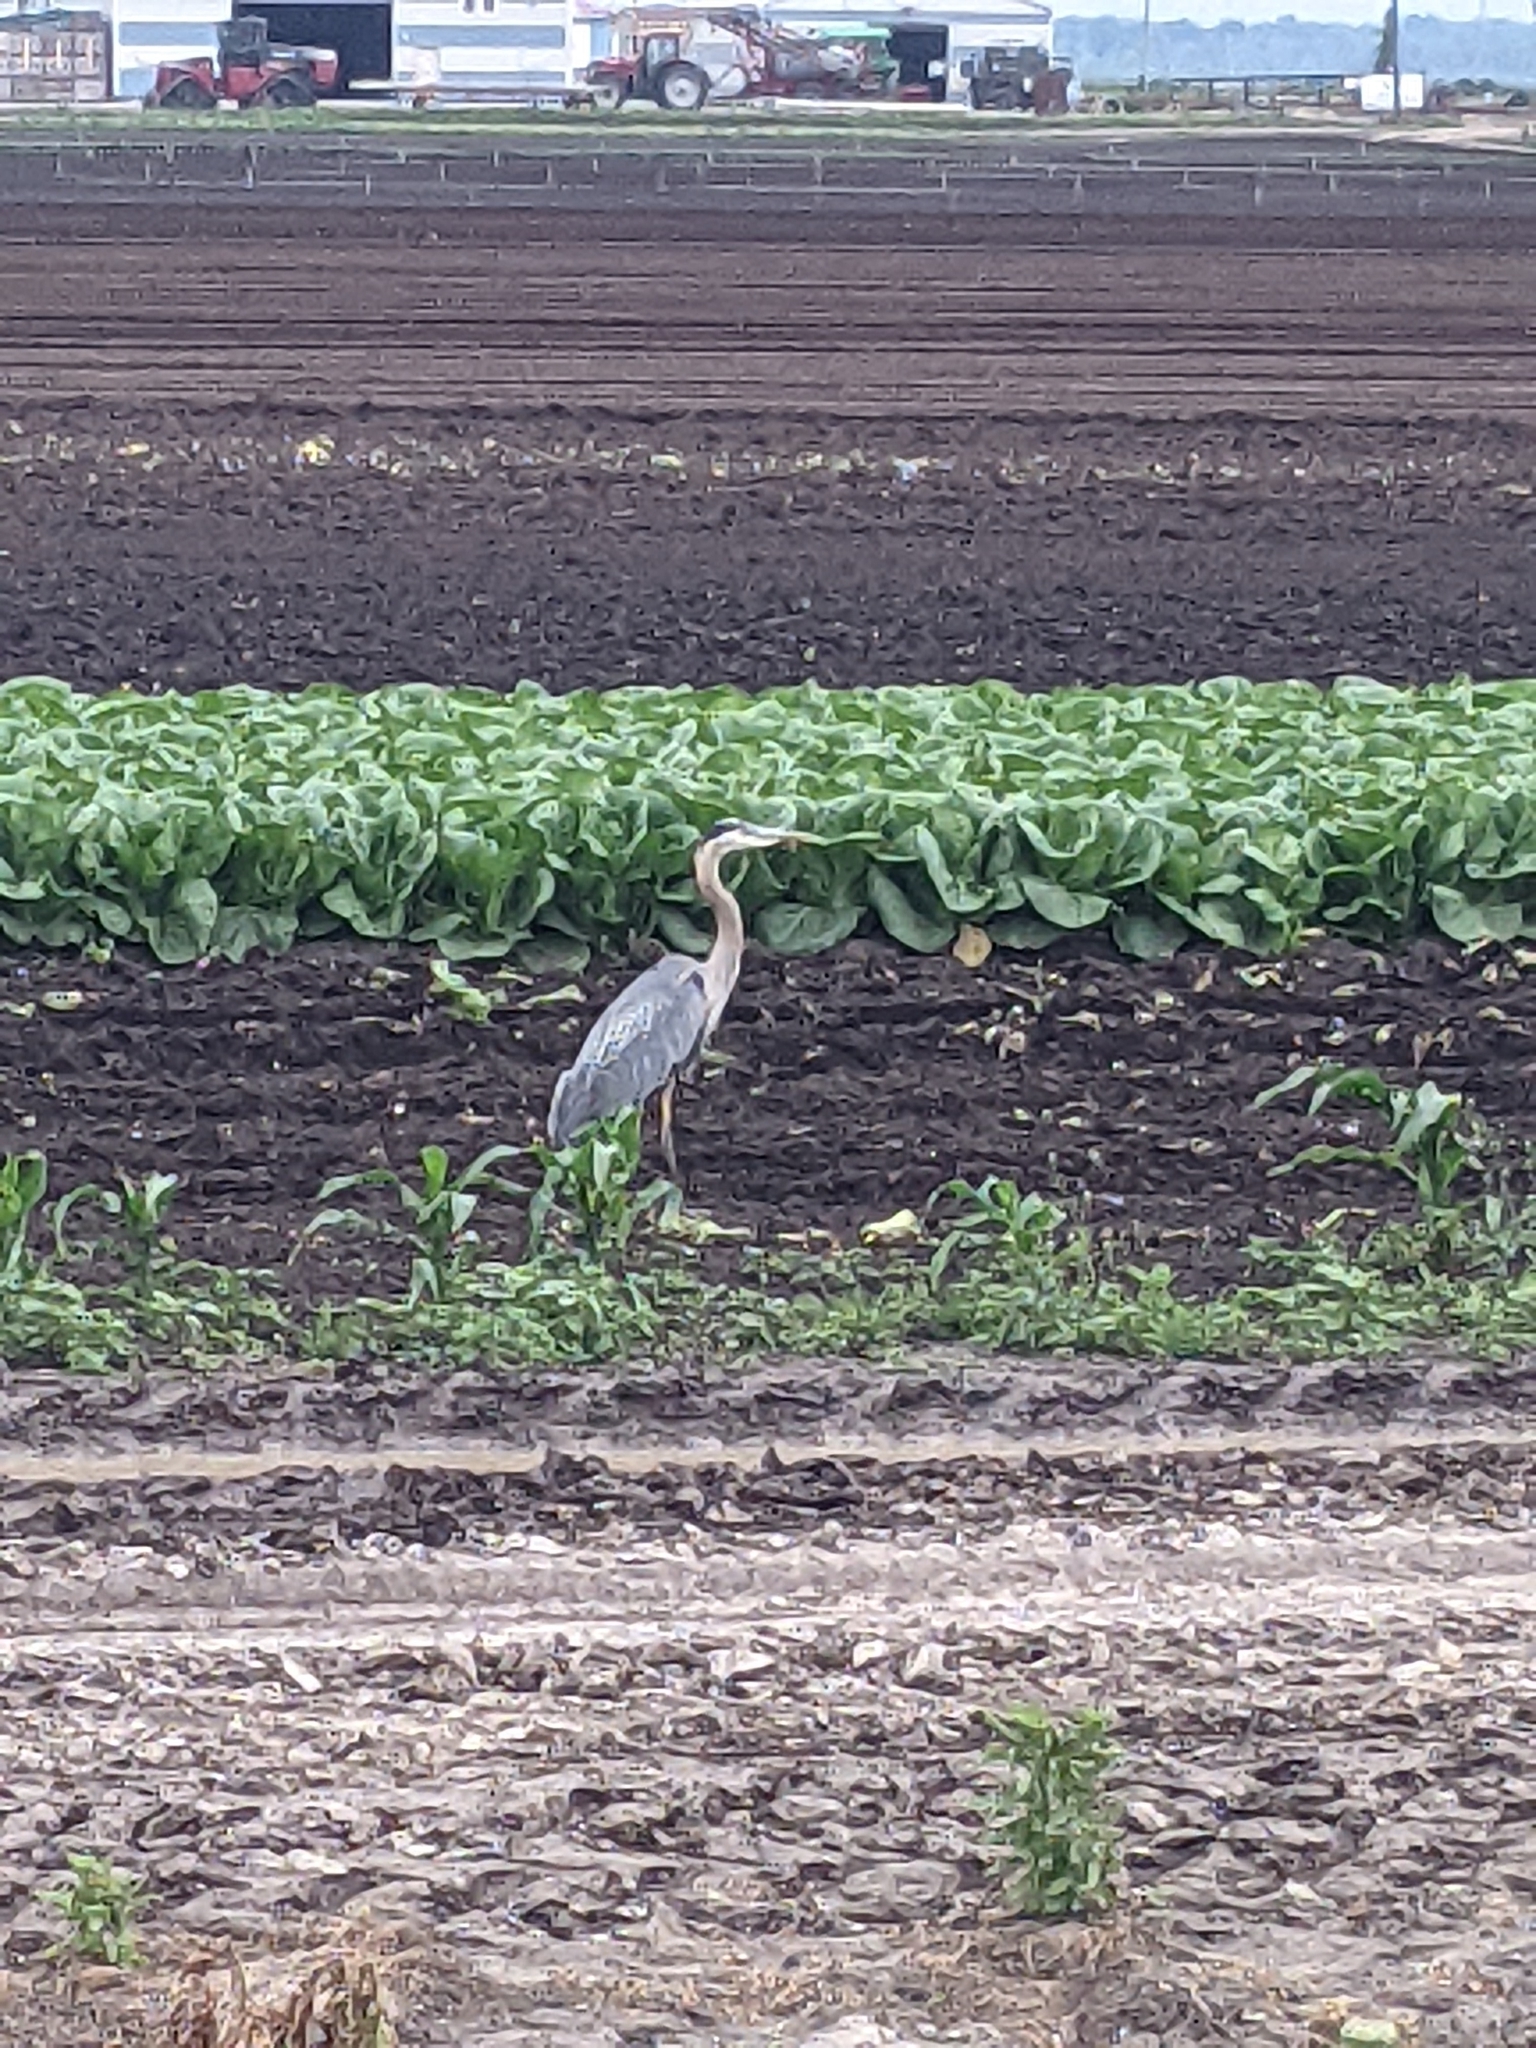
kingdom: Animalia
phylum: Chordata
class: Aves
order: Pelecaniformes
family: Ardeidae
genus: Ardea
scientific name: Ardea herodias
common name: Great blue heron
